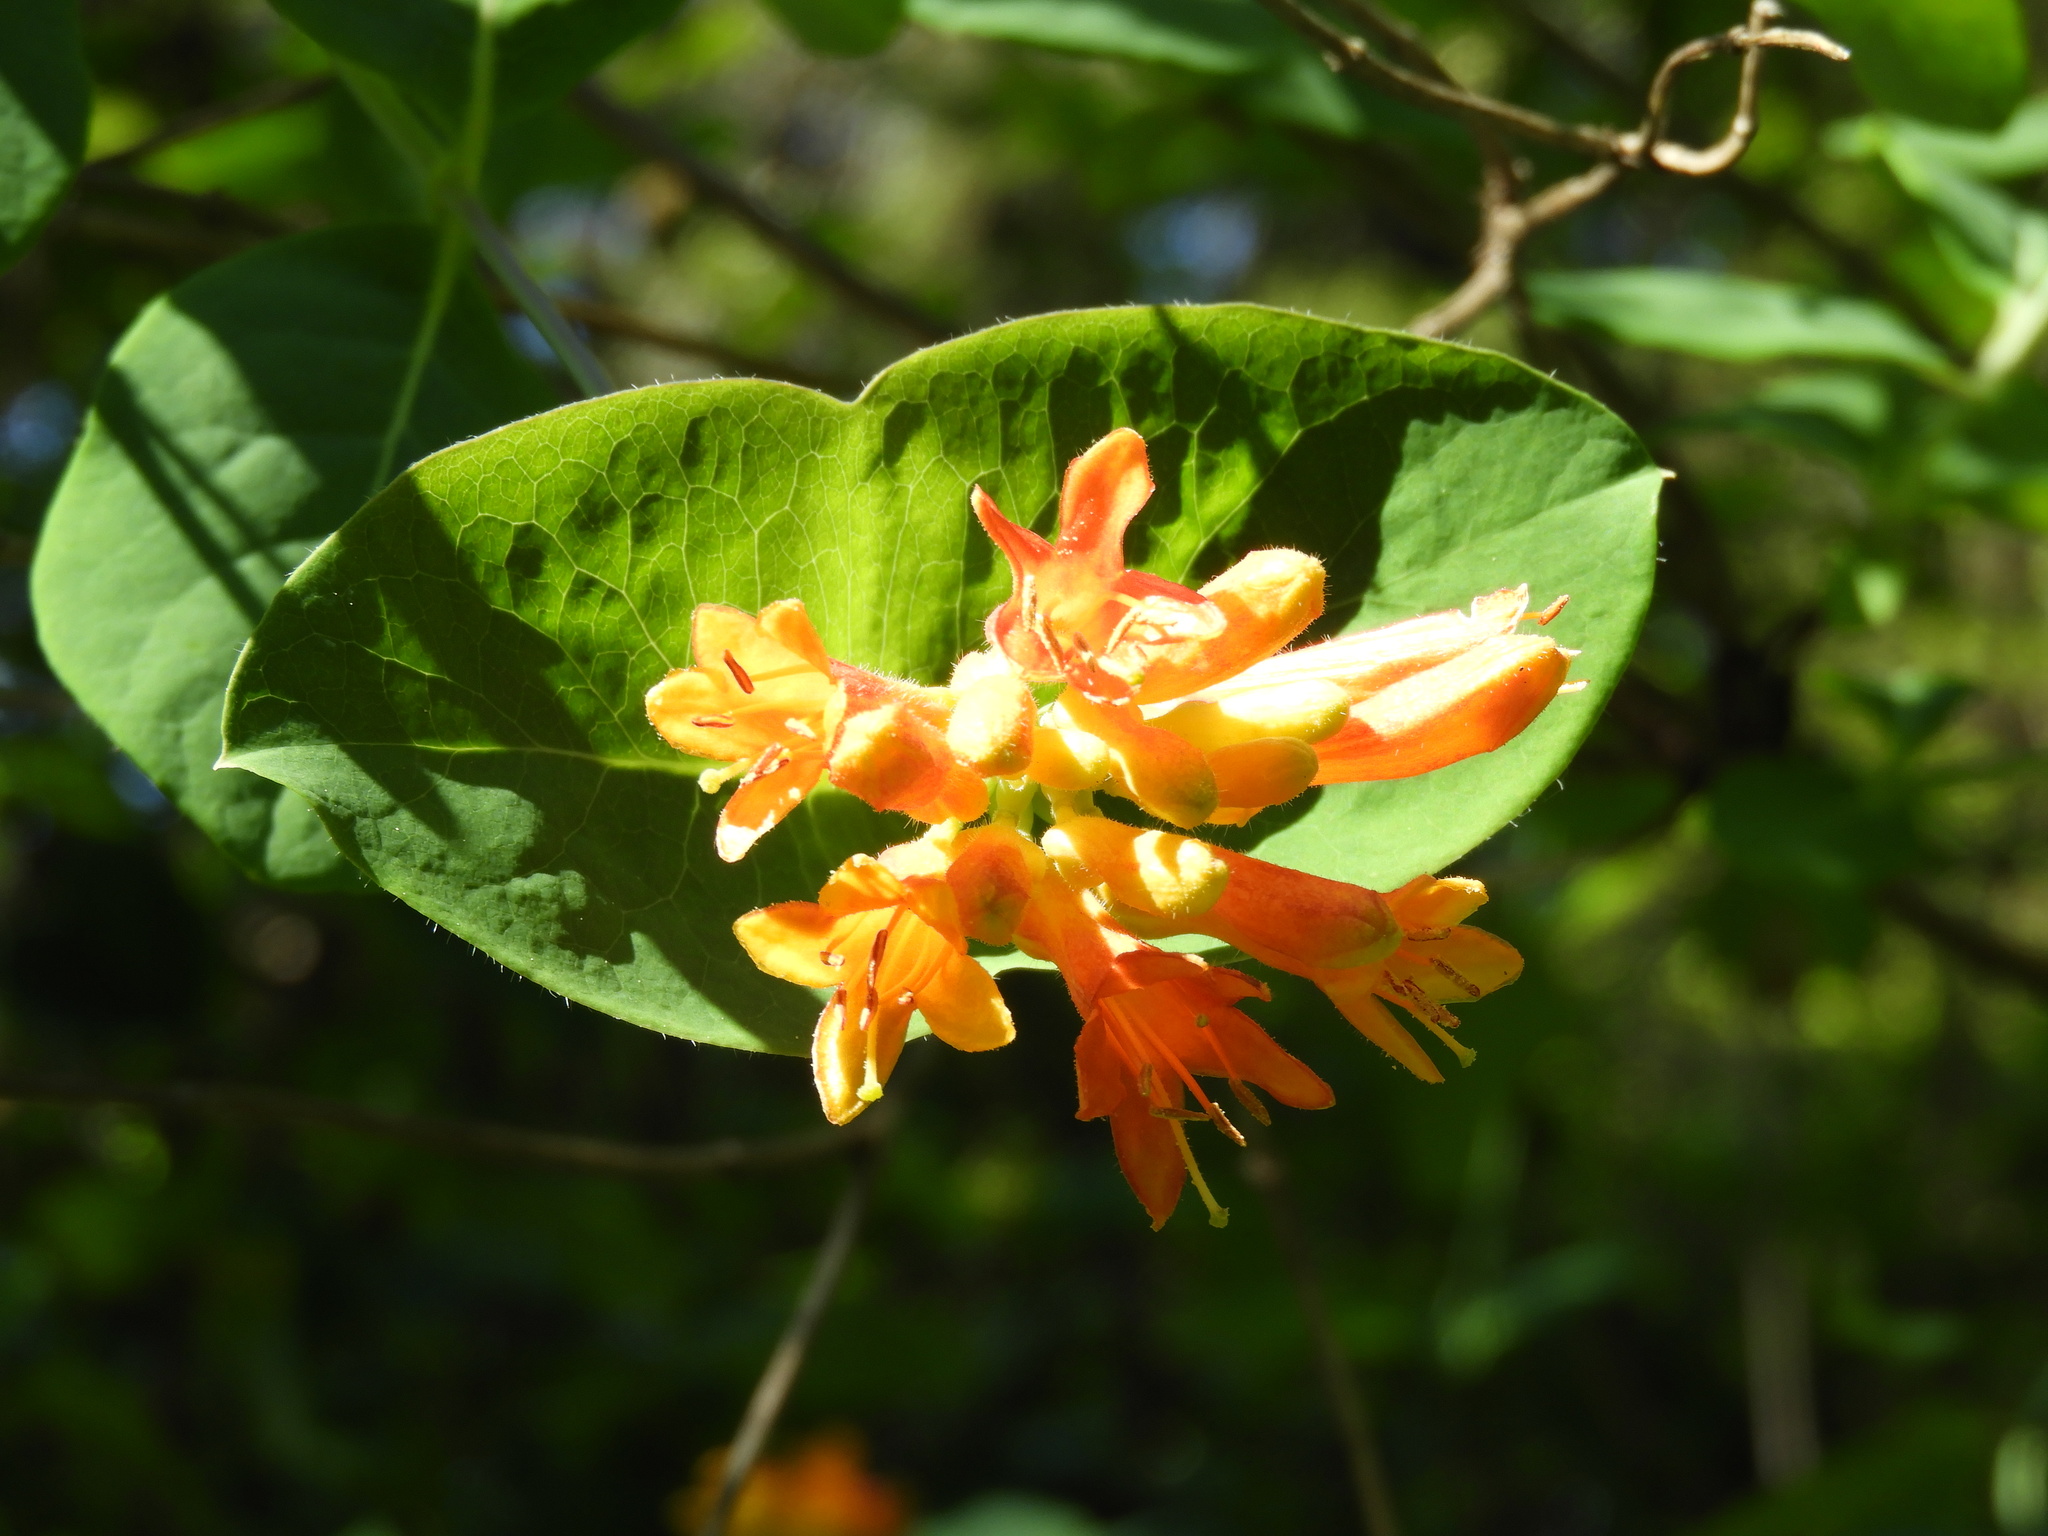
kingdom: Plantae
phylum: Tracheophyta
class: Magnoliopsida
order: Dipsacales
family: Caprifoliaceae
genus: Lonicera
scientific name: Lonicera ciliosa
